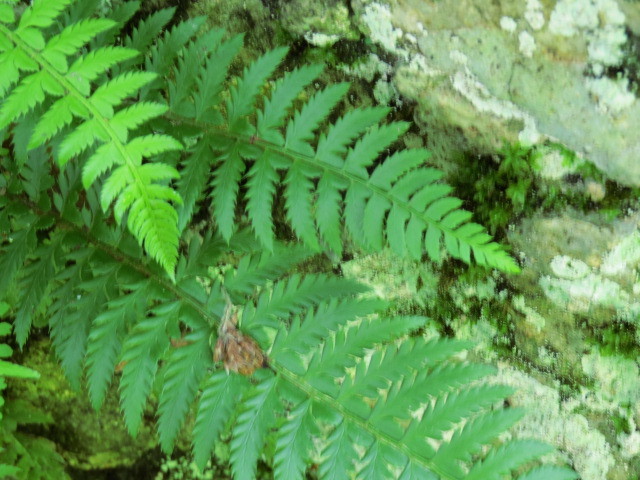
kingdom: Plantae
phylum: Tracheophyta
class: Polypodiopsida
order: Polypodiales
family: Dryopteridaceae
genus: Polystichum
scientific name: Polystichum aculeatum
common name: Hard shield-fern
